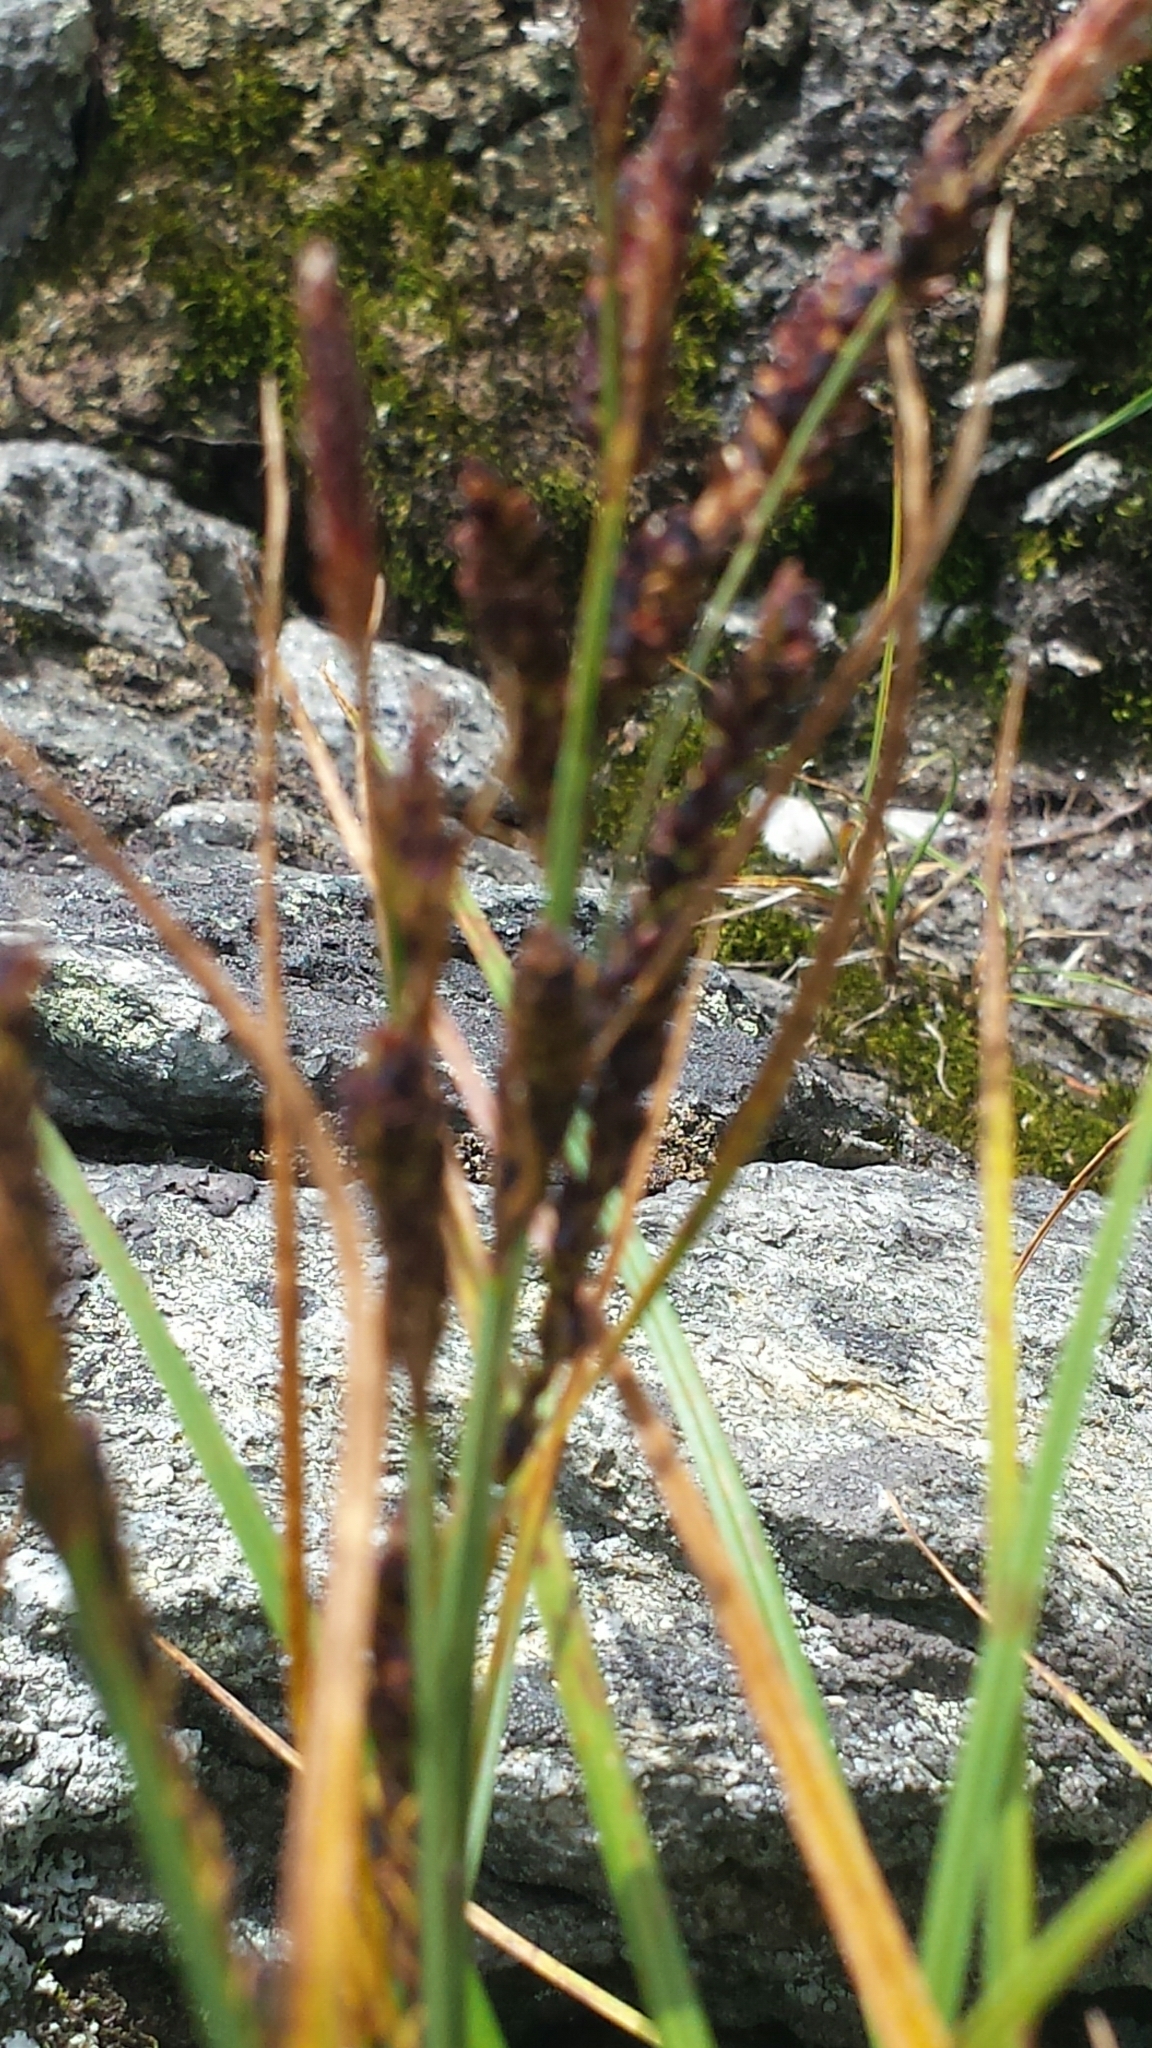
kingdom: Plantae
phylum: Tracheophyta
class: Liliopsida
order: Poales
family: Cyperaceae
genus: Carex
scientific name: Carex bigelowii
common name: Stiff sedge
